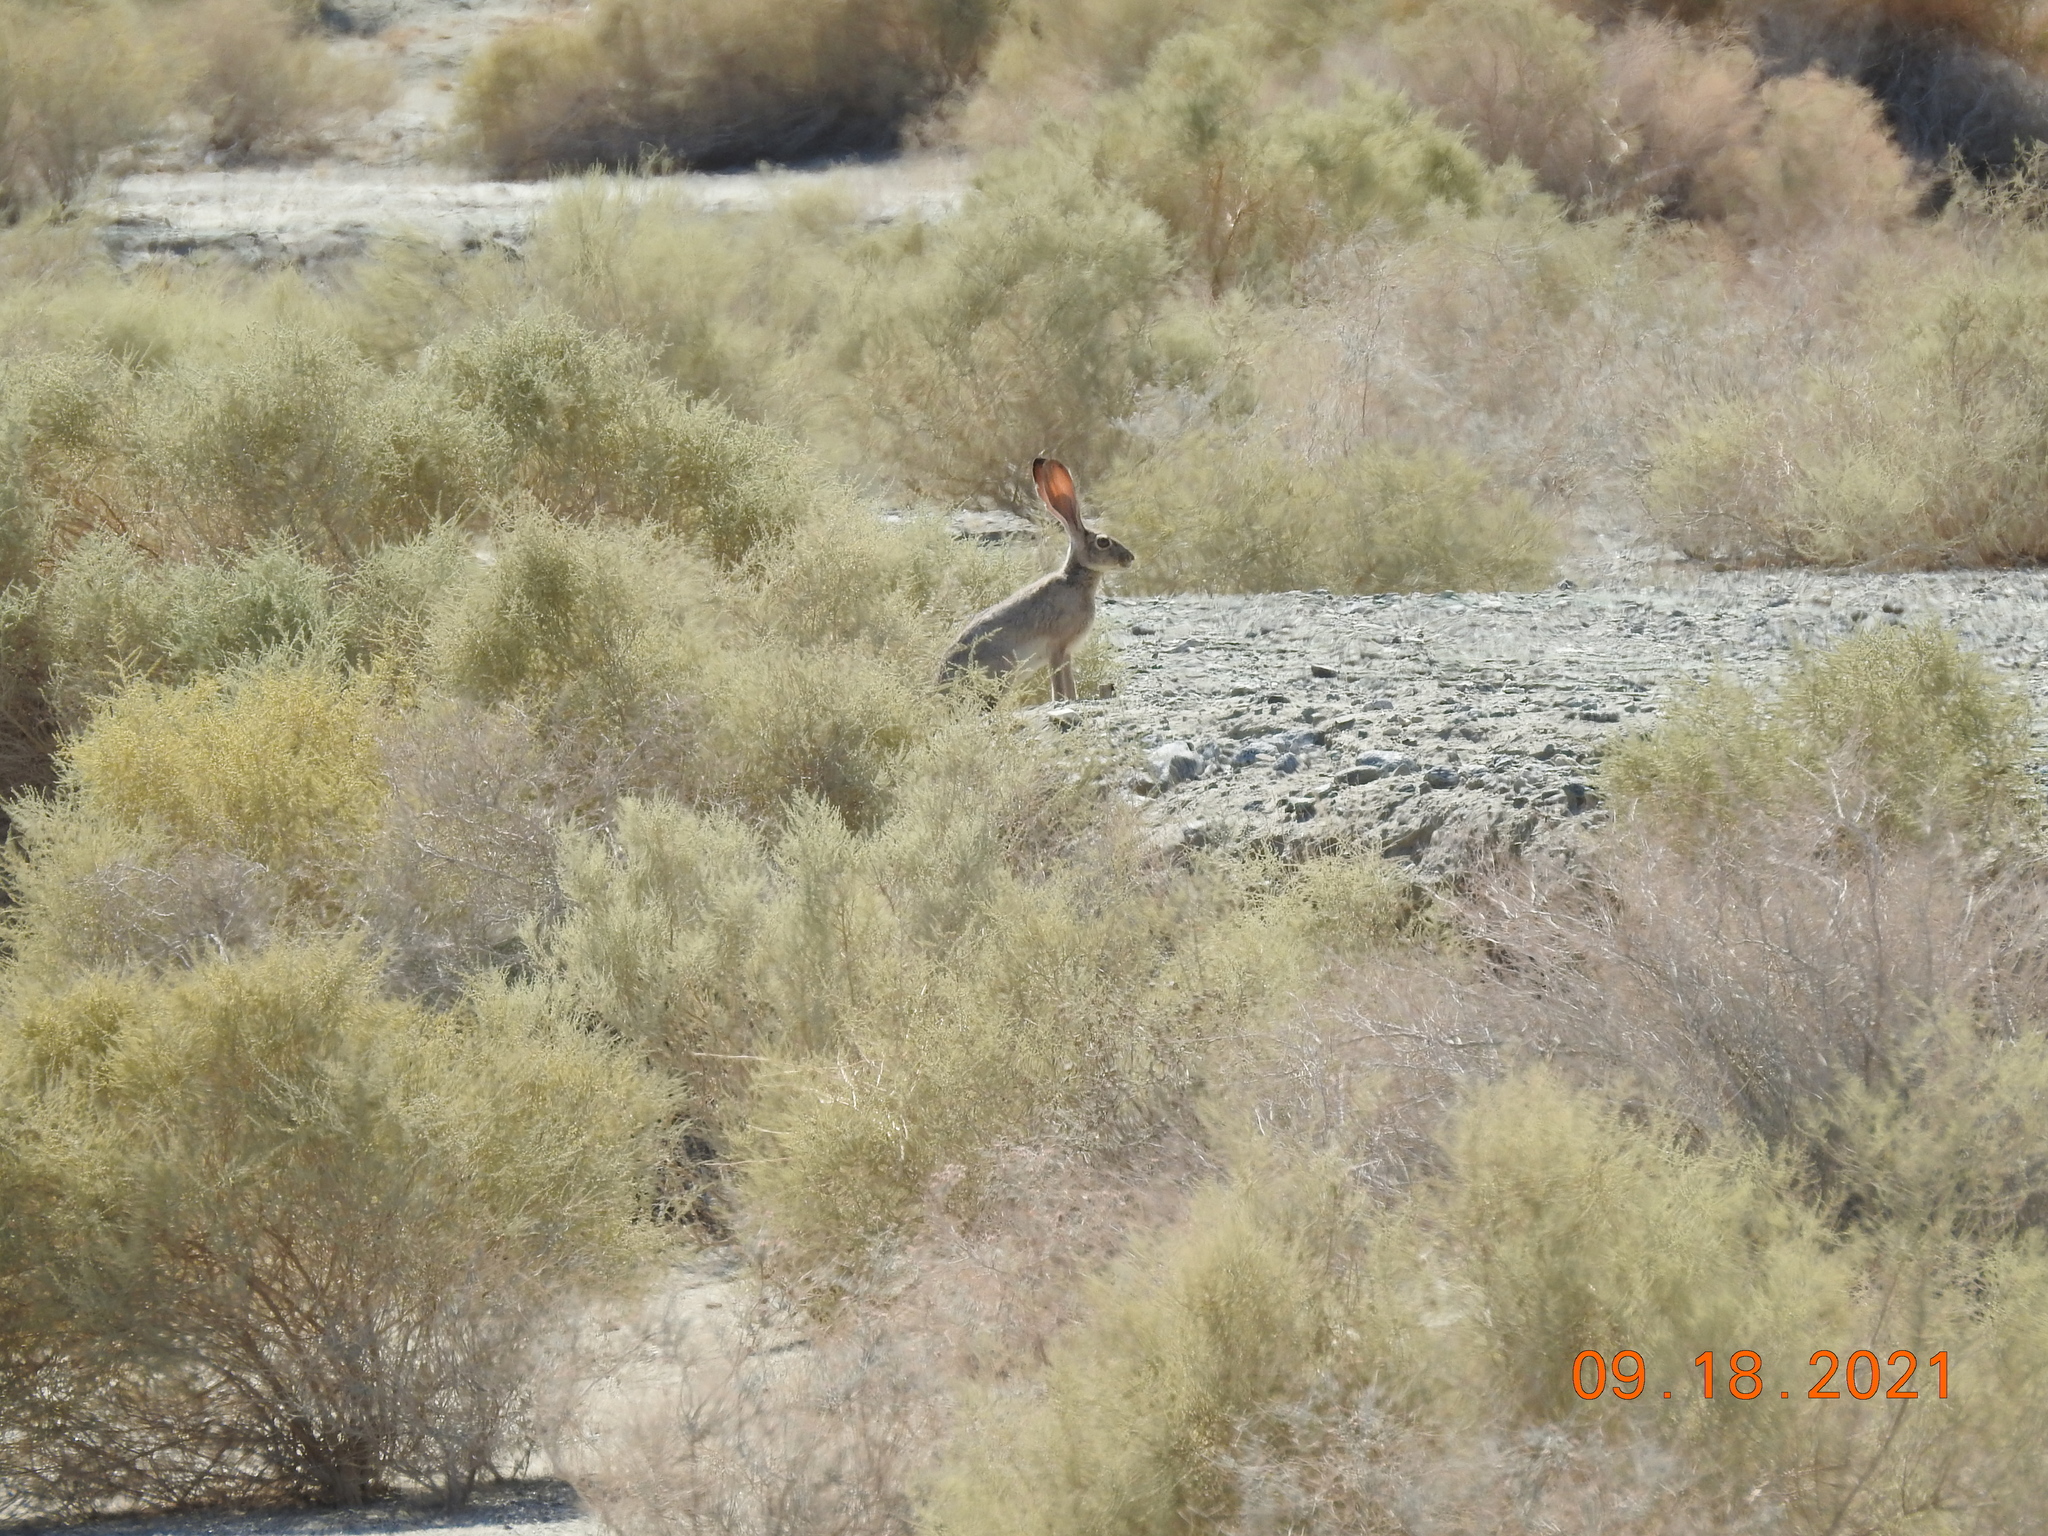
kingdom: Animalia
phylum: Chordata
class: Mammalia
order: Lagomorpha
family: Leporidae
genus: Lepus
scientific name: Lepus californicus
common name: Black-tailed jackrabbit
